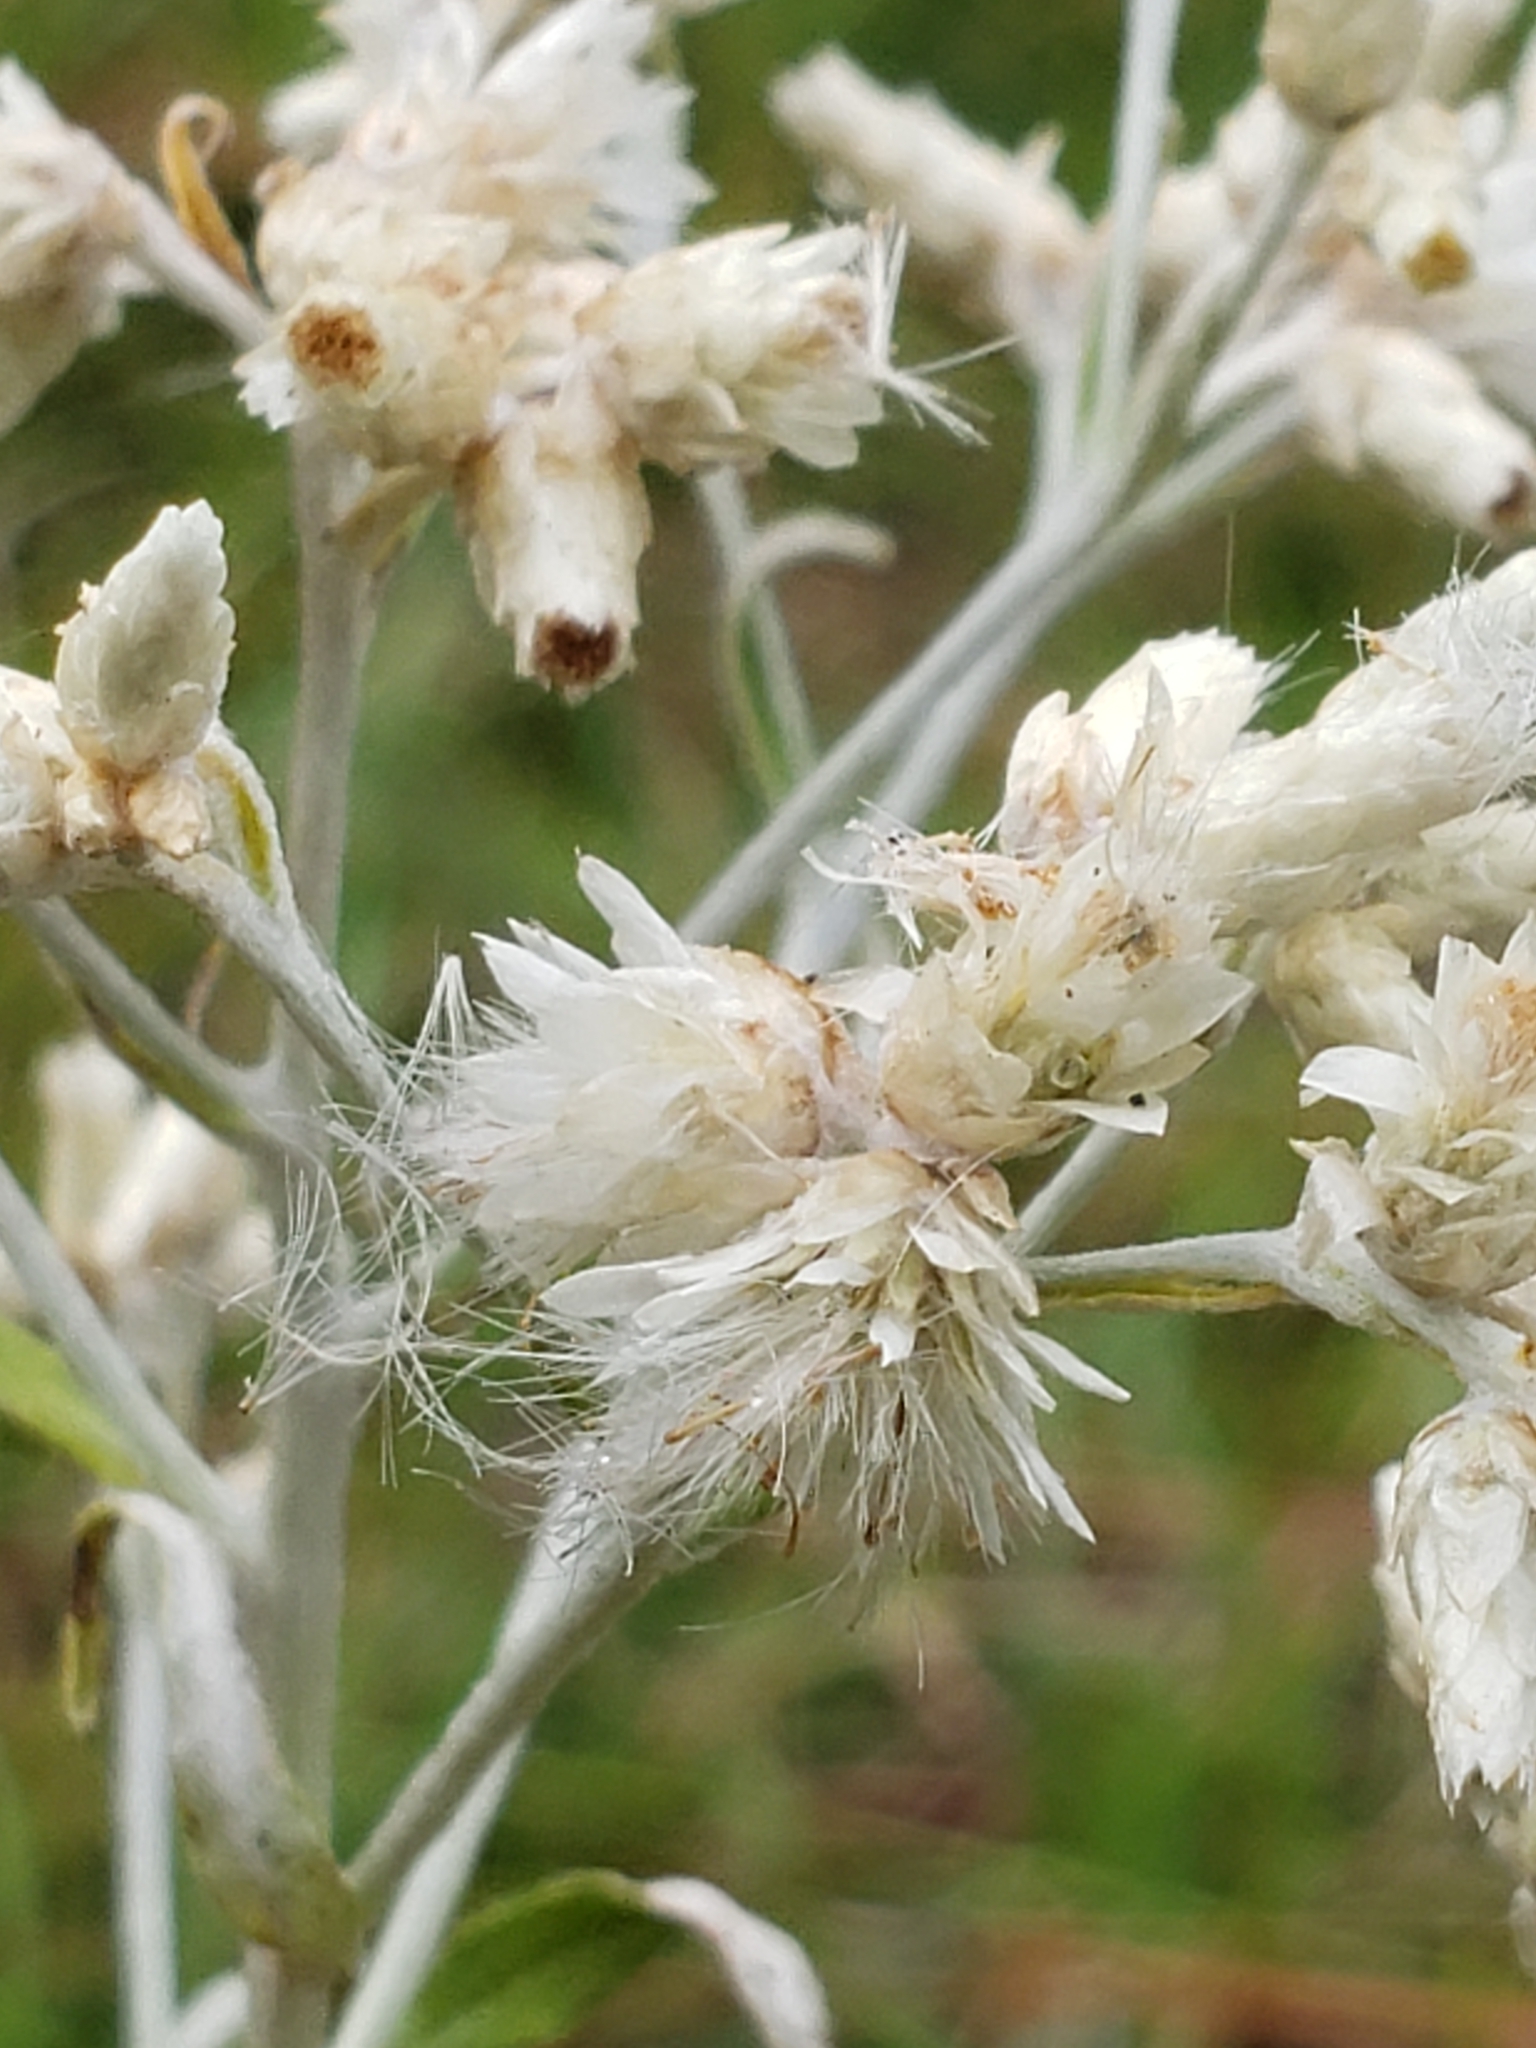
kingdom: Plantae
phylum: Tracheophyta
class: Magnoliopsida
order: Asterales
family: Asteraceae
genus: Pseudognaphalium
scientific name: Pseudognaphalium obtusifolium
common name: Eastern rabbit-tobacco
